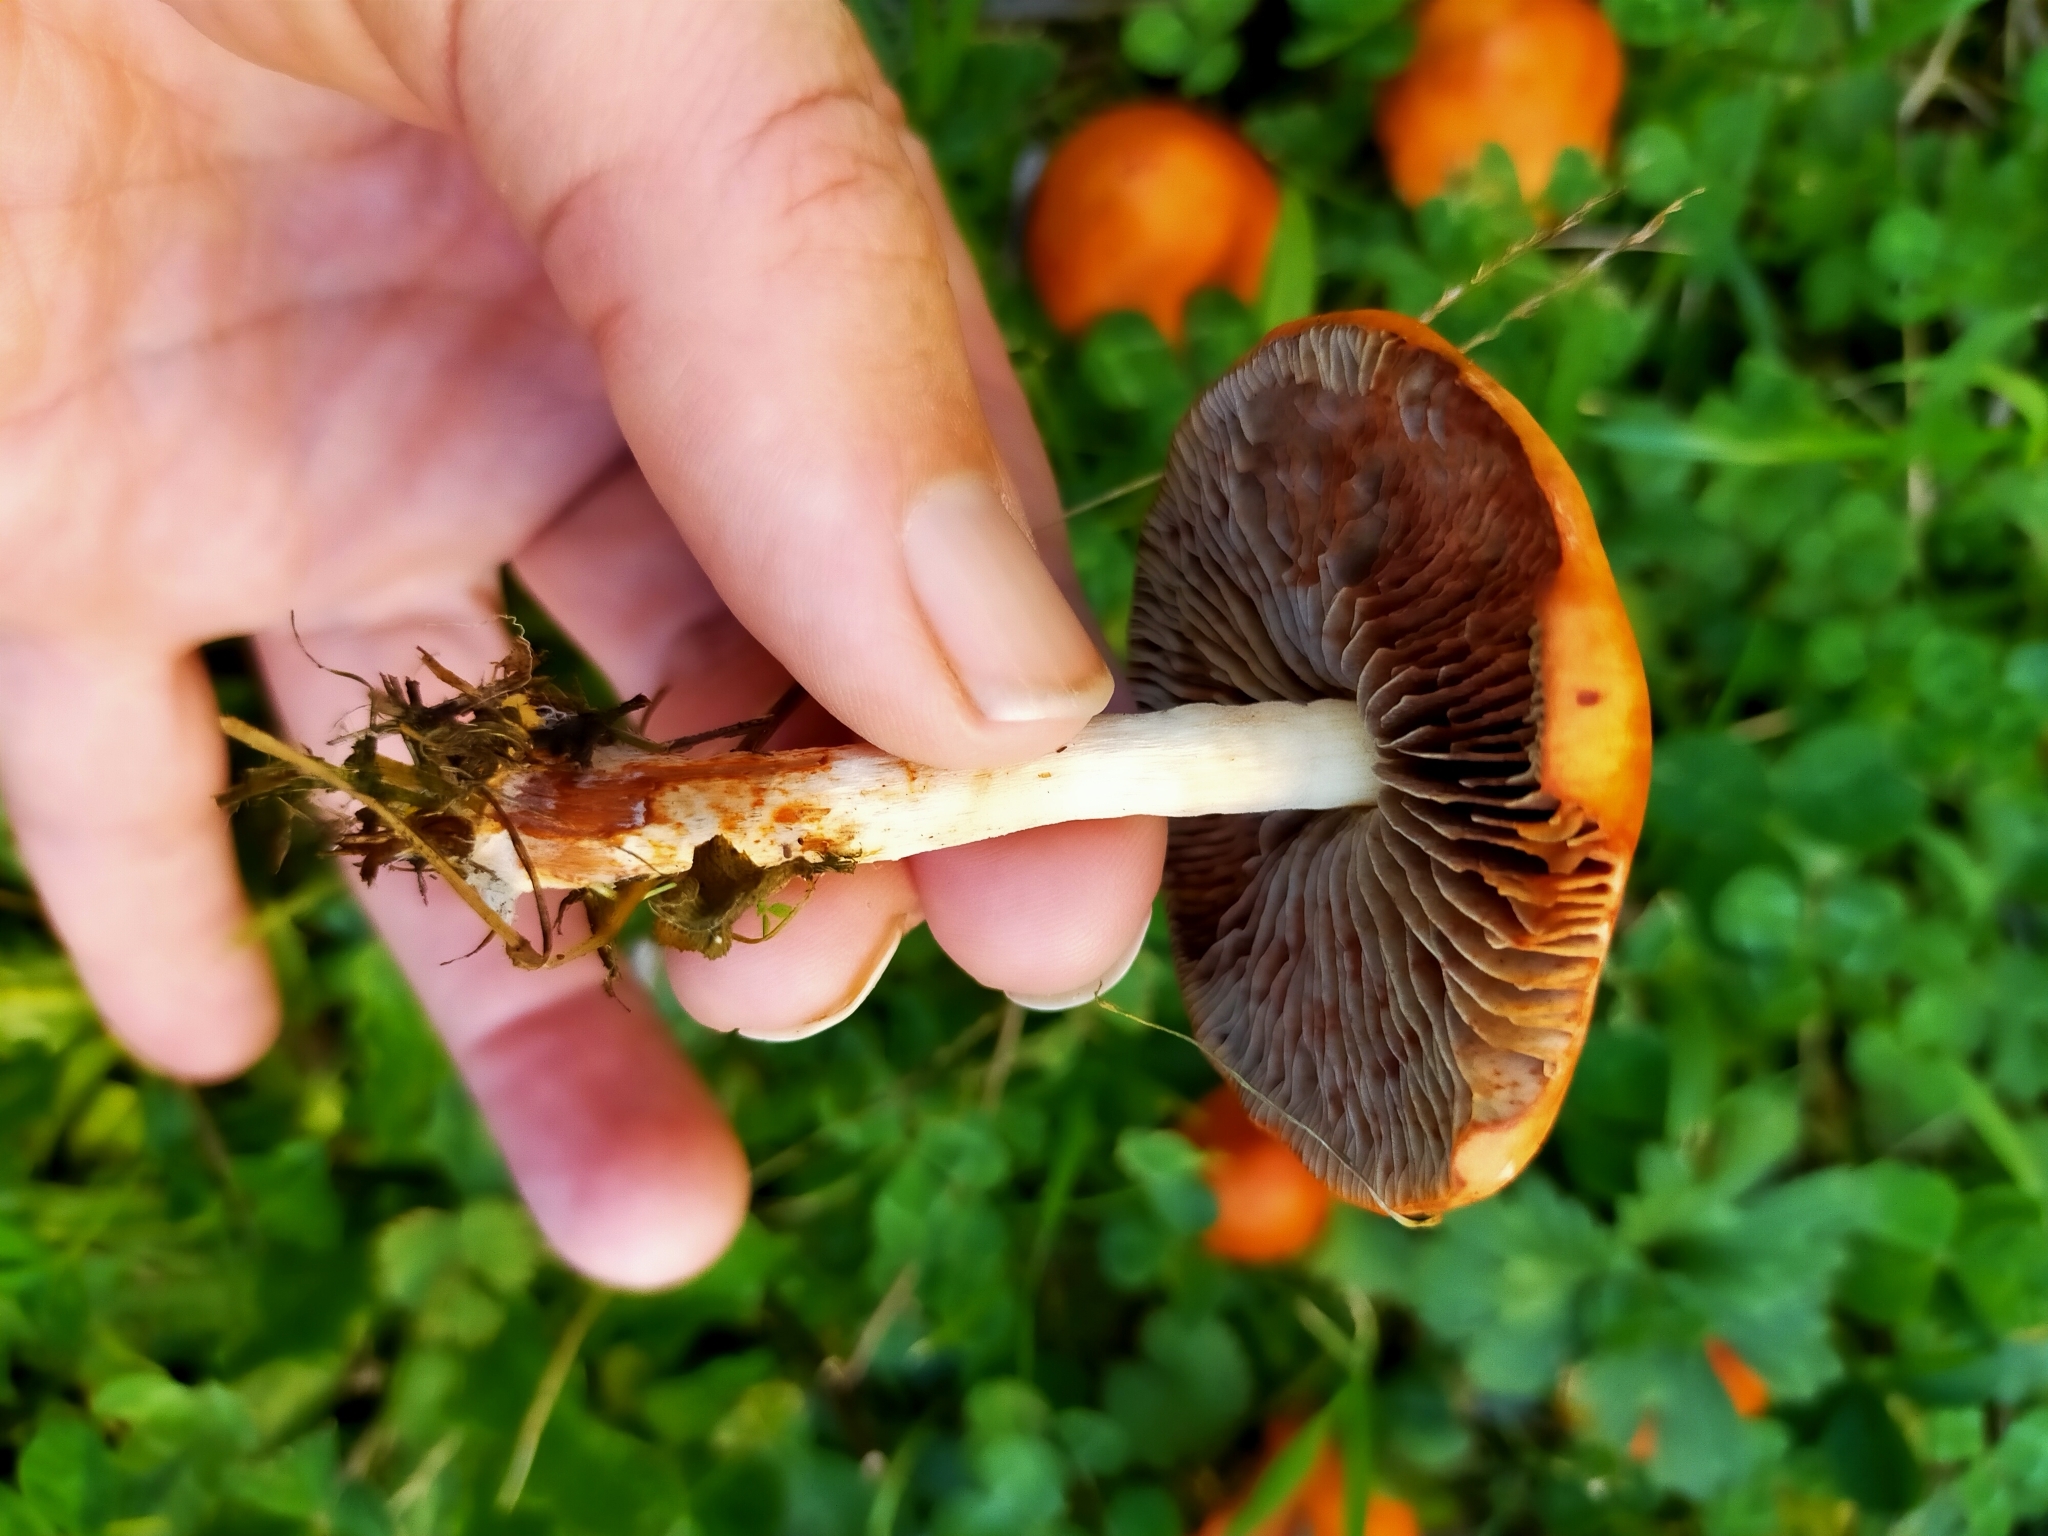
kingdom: Fungi
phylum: Basidiomycota
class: Agaricomycetes
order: Agaricales
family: Strophariaceae
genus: Leratiomyces
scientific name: Leratiomyces ceres
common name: Redlead roundhead
